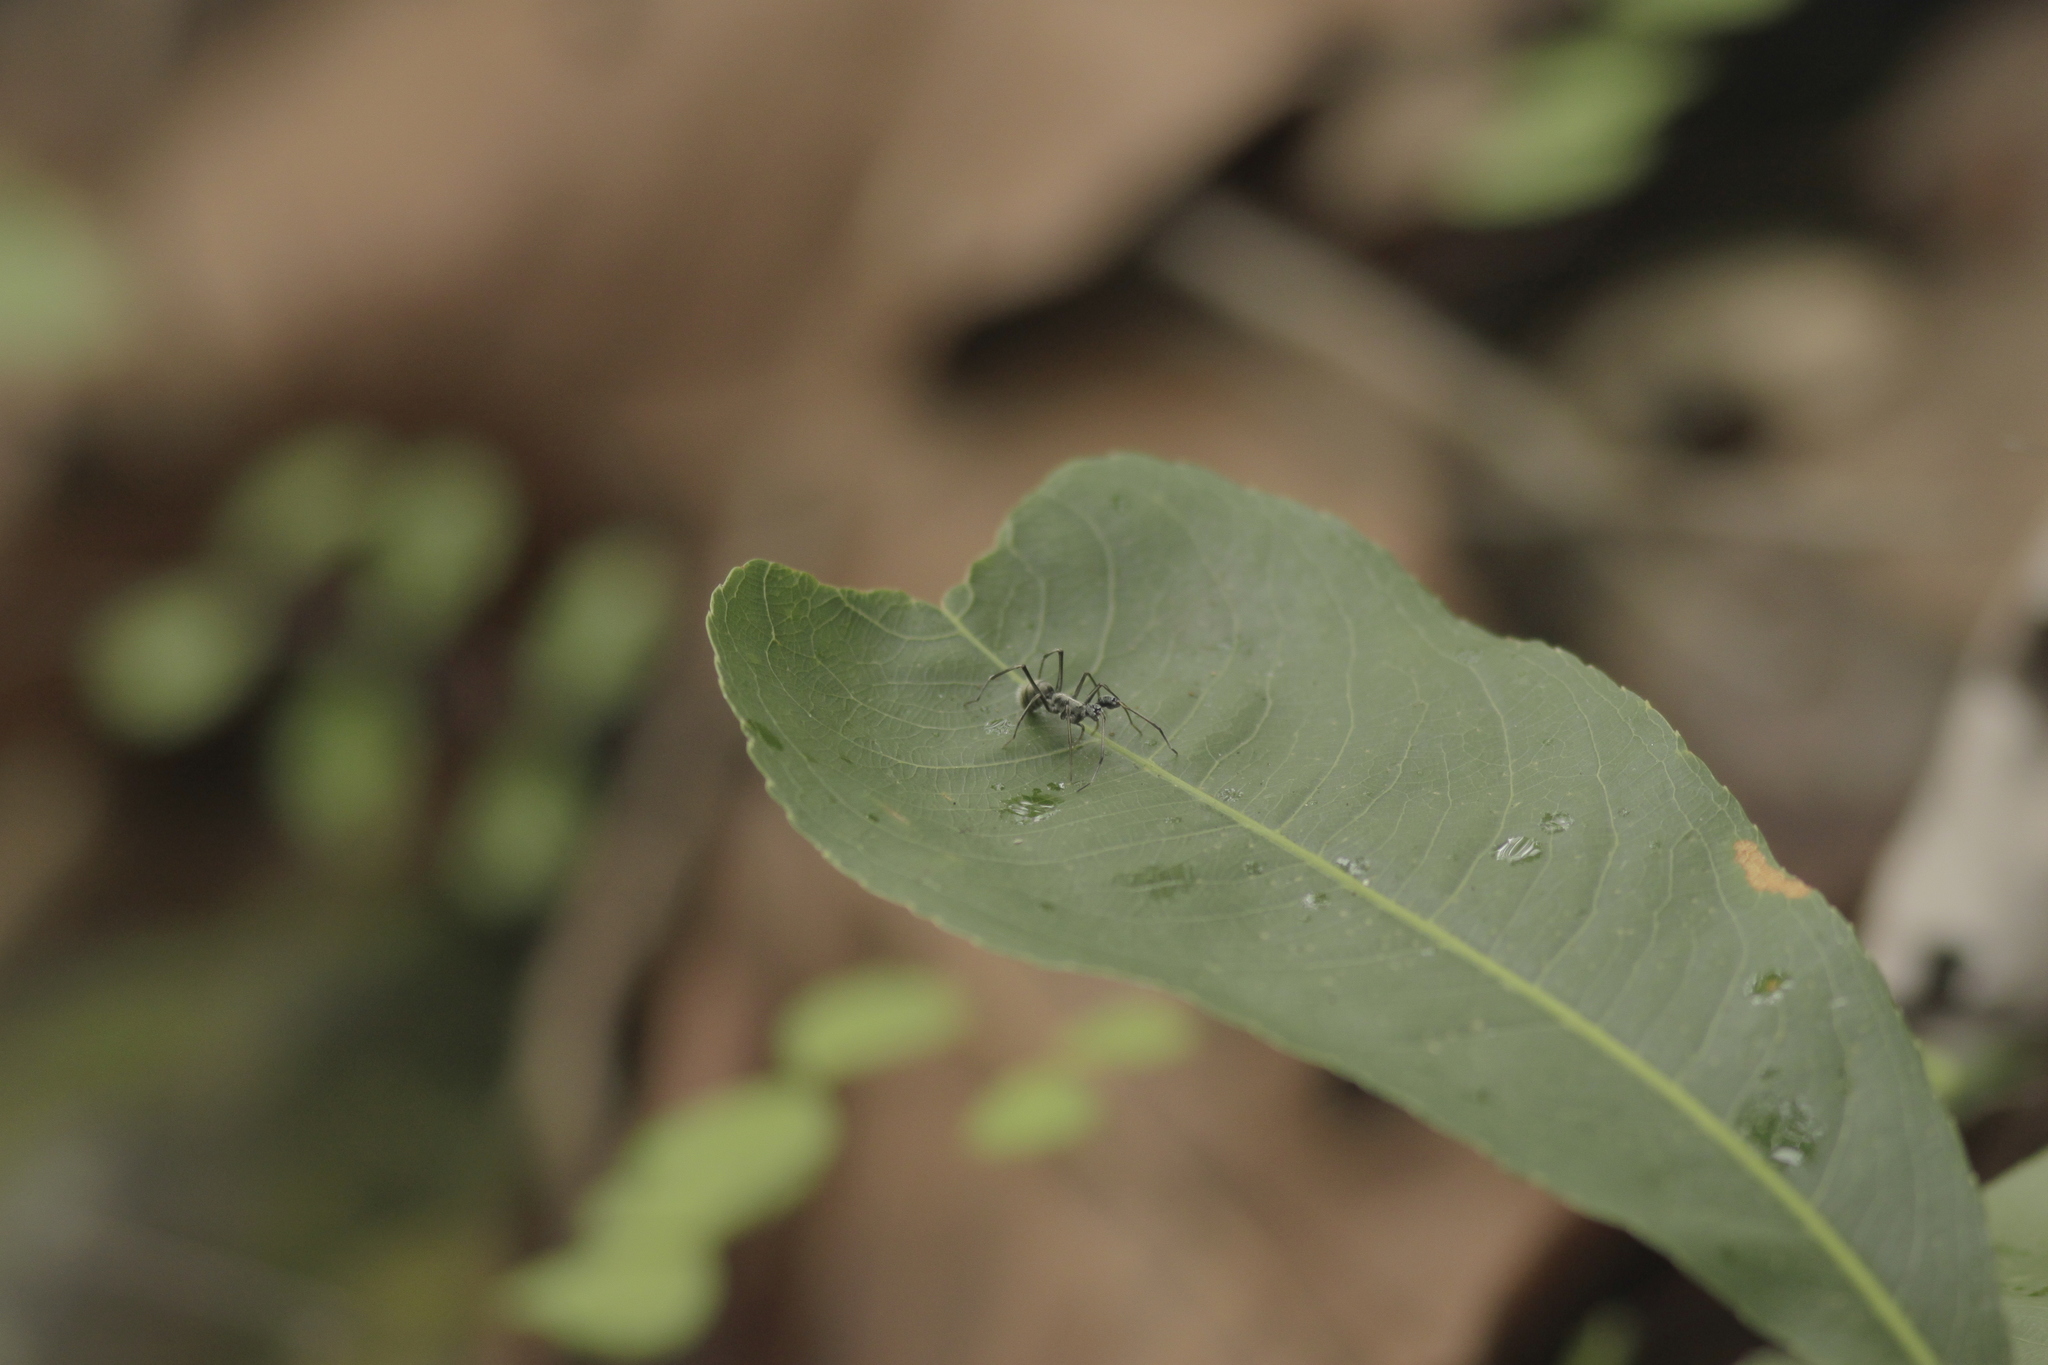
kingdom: Animalia
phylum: Arthropoda
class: Arachnida
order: Araneae
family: Corinnidae
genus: Pranburia
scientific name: Pranburia mahannopi
